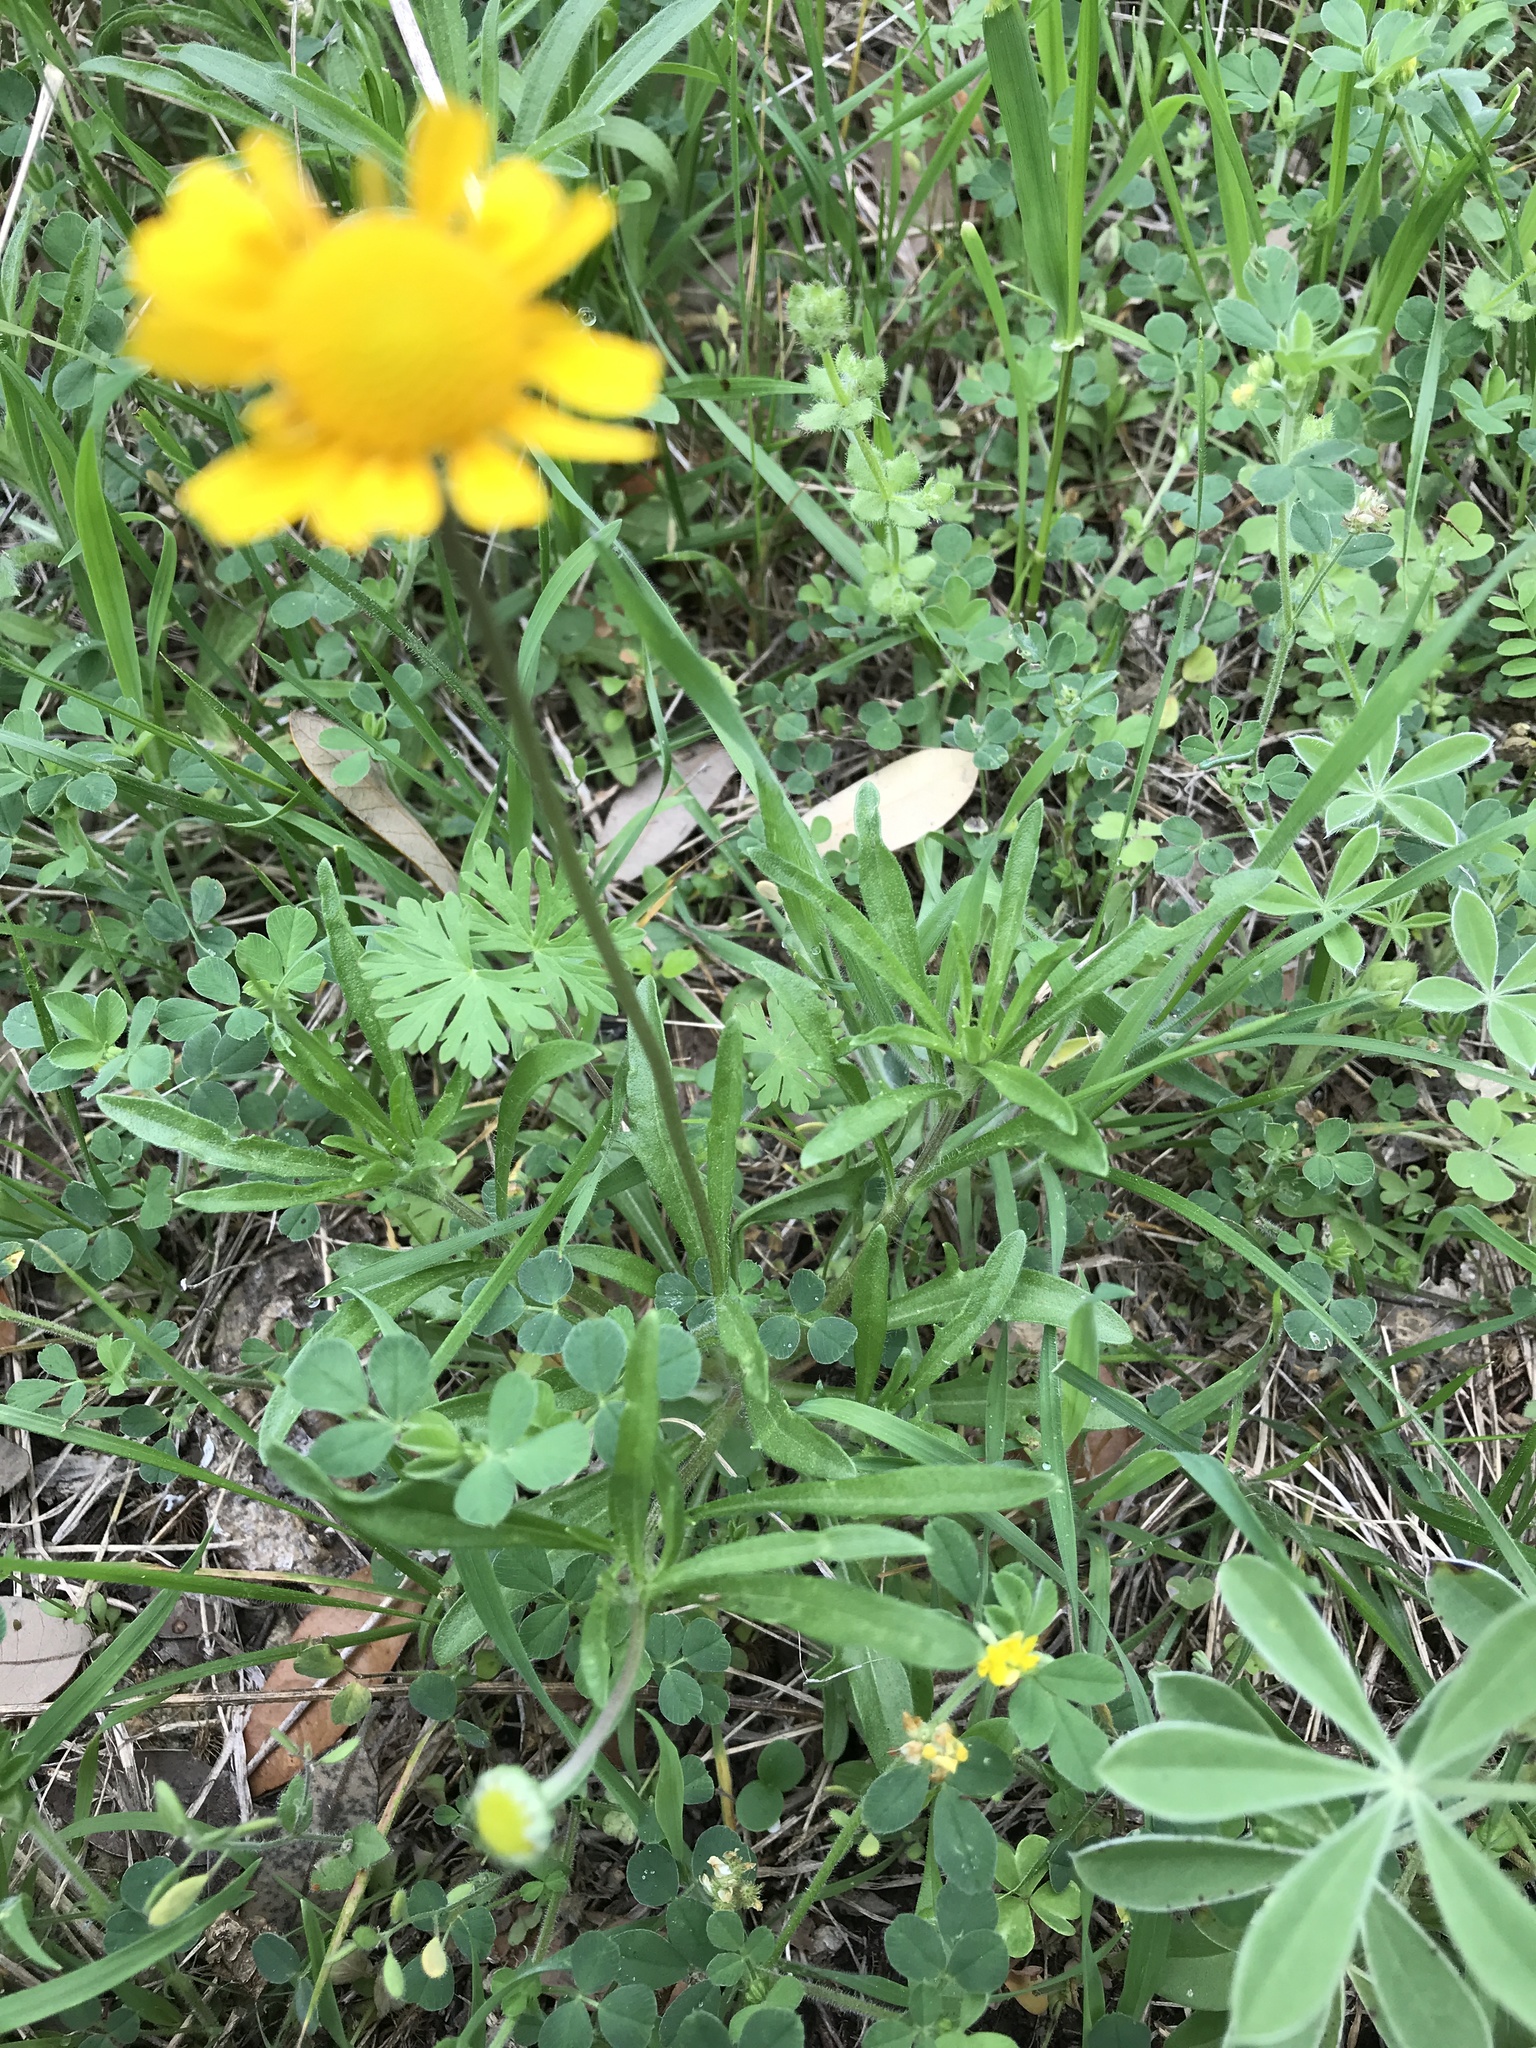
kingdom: Plantae
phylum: Tracheophyta
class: Magnoliopsida
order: Asterales
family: Asteraceae
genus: Tetraneuris
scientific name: Tetraneuris scaposa
